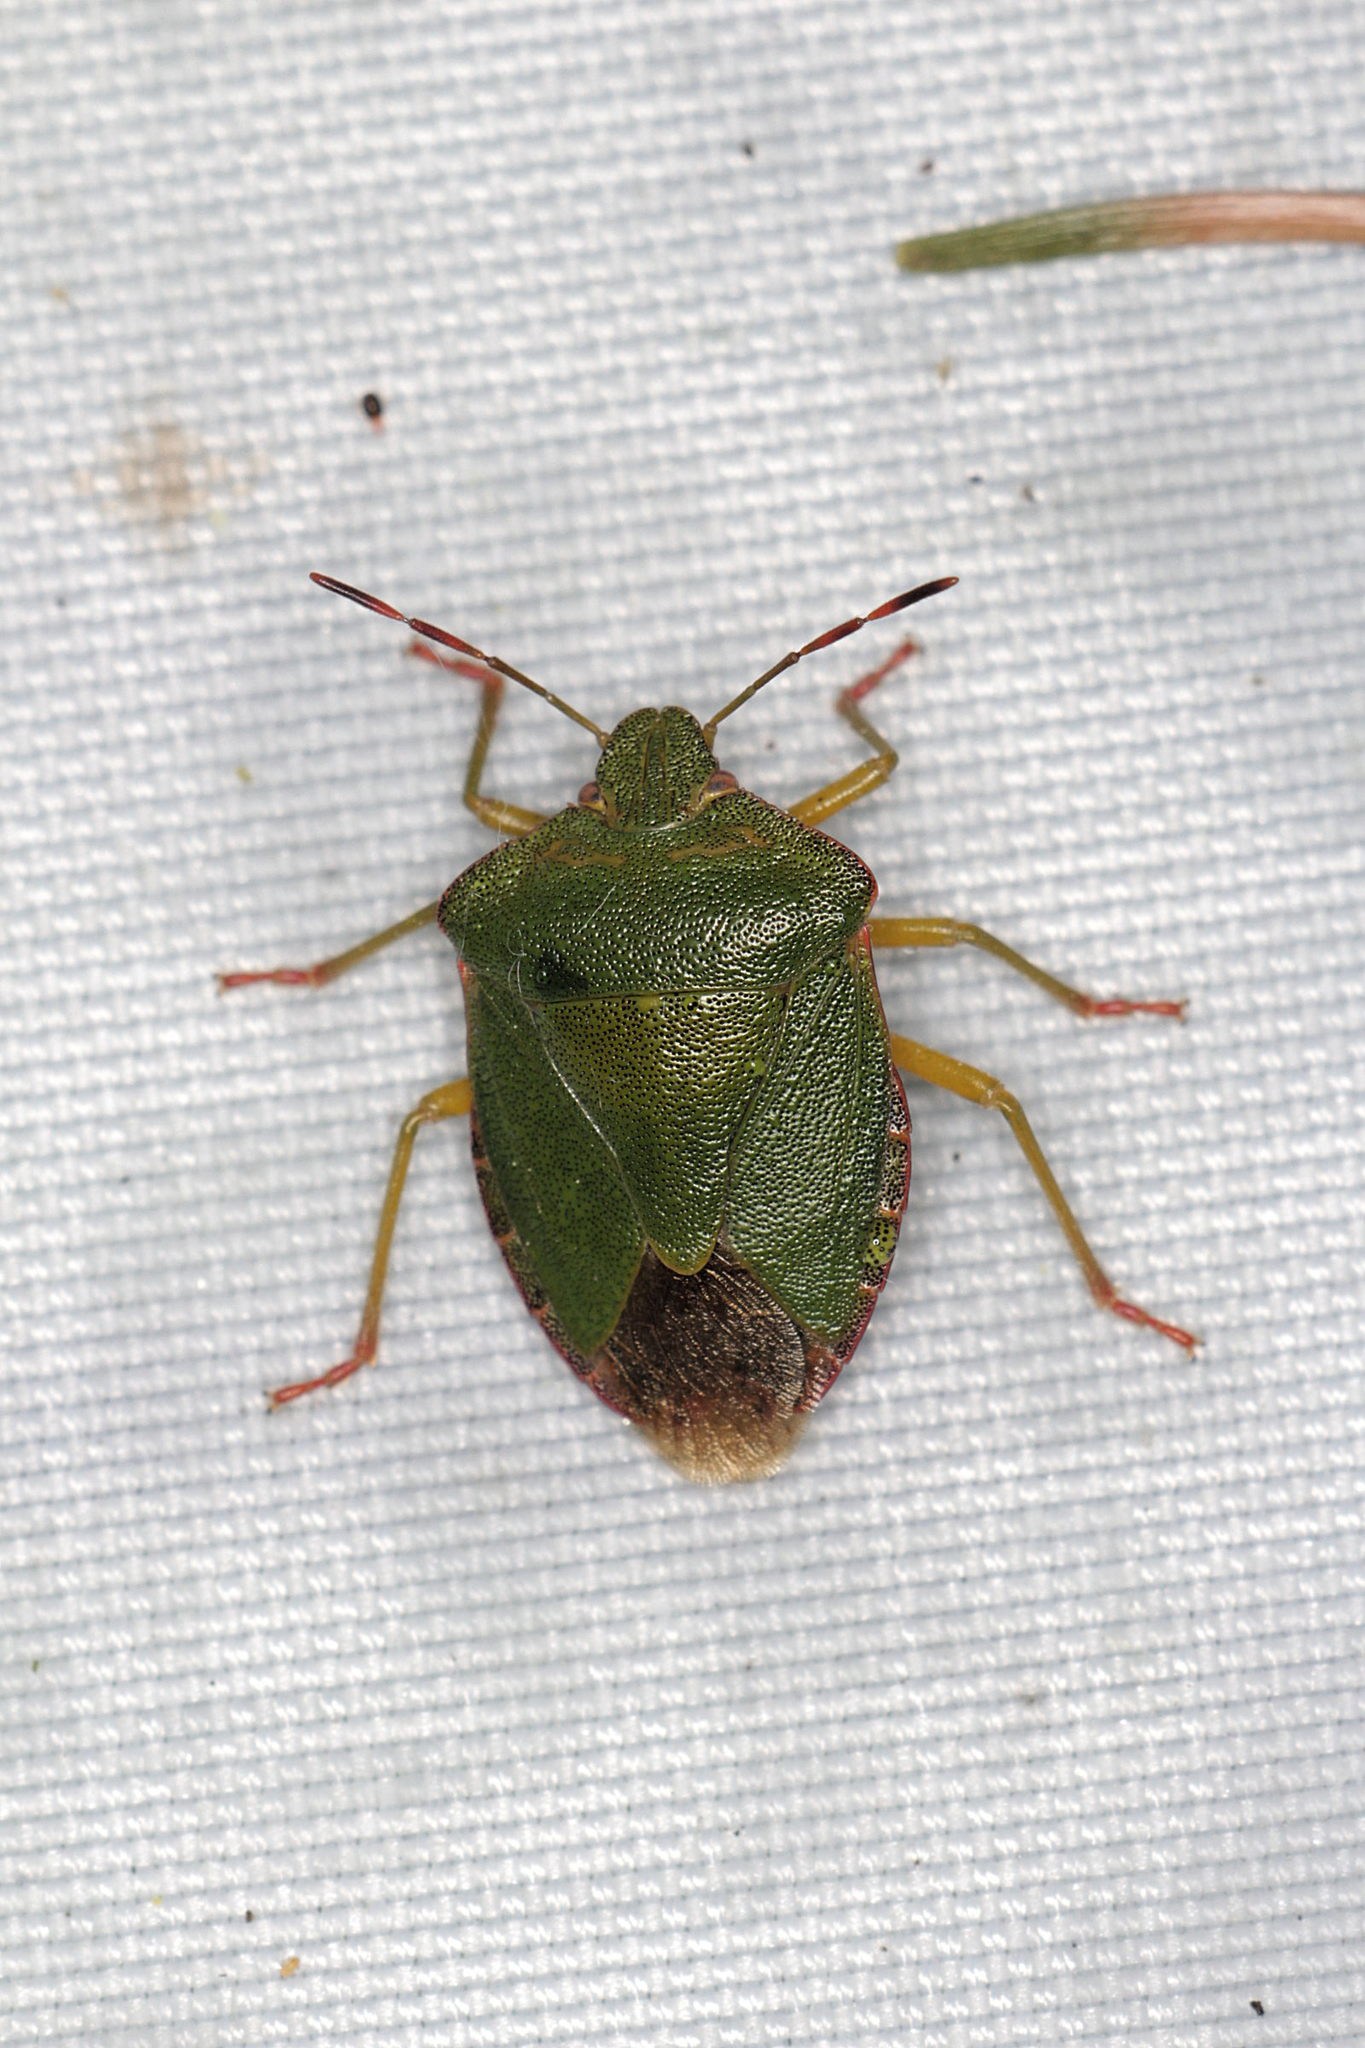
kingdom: Animalia
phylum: Arthropoda
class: Insecta
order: Hemiptera
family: Pentatomidae
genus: Palomena
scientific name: Palomena prasina
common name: Green shieldbug
